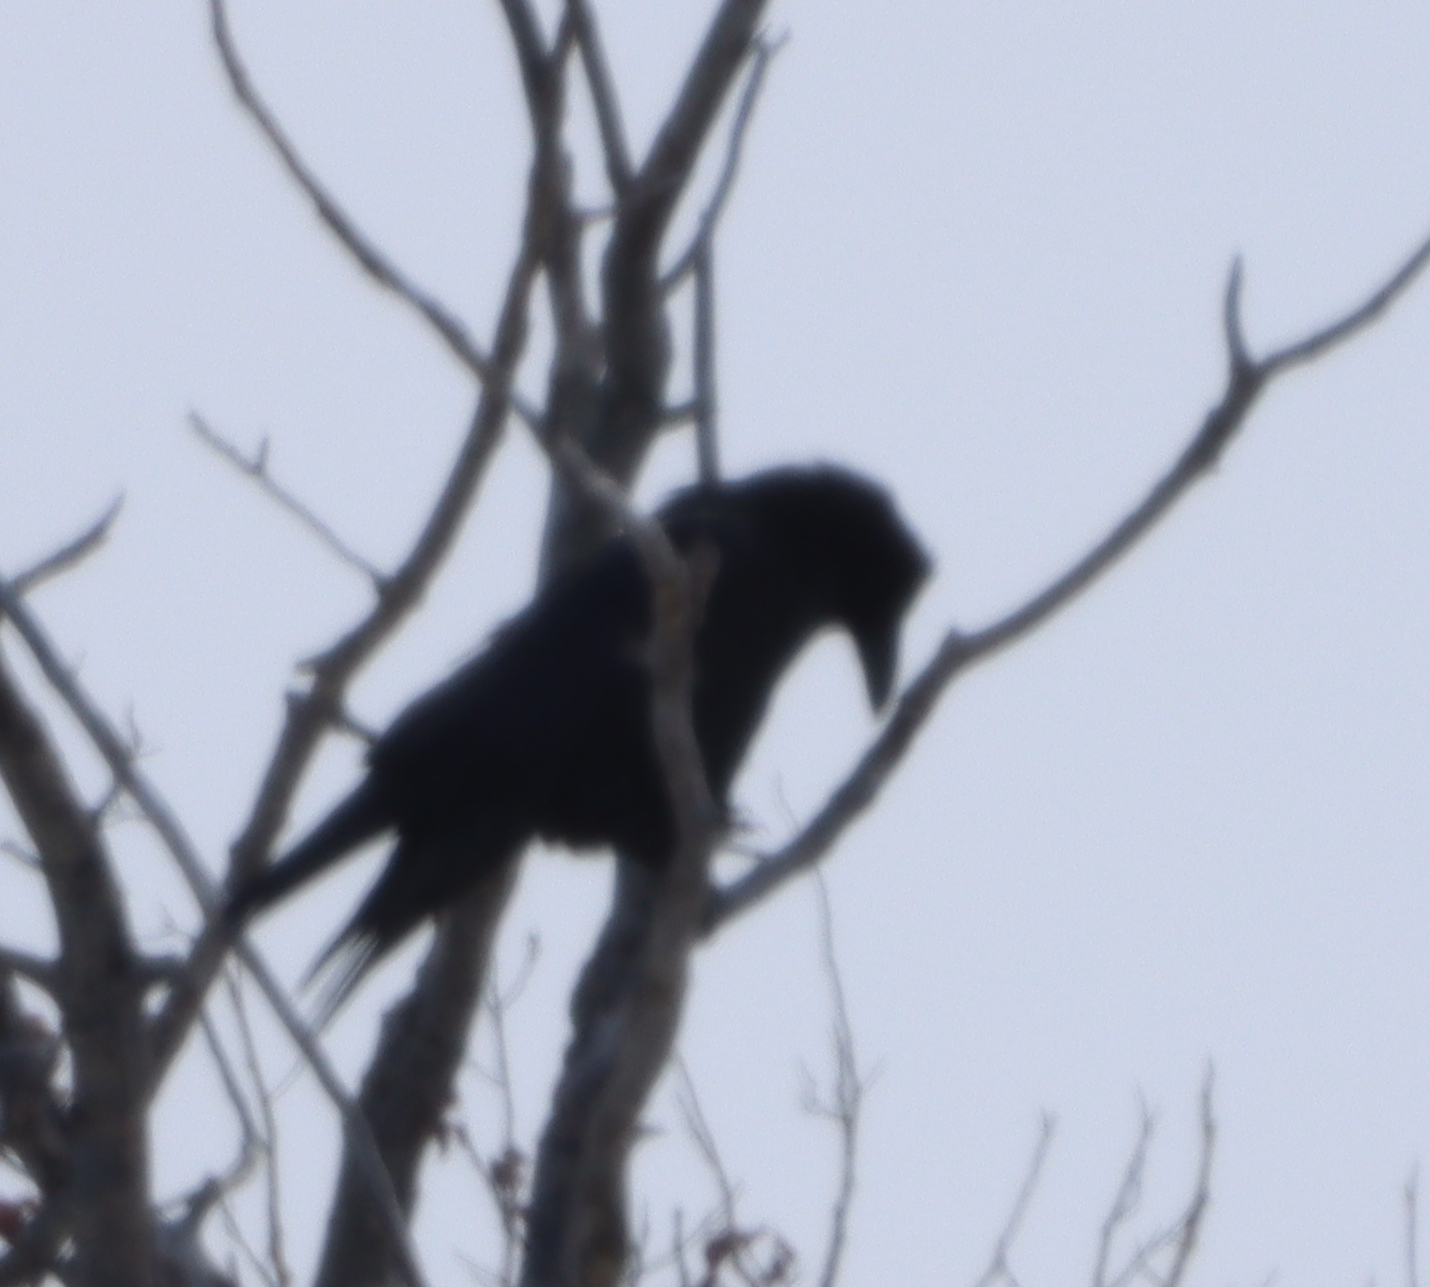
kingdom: Animalia
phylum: Chordata
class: Aves
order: Passeriformes
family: Corvidae
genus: Corvus
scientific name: Corvus corax
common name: Common raven
